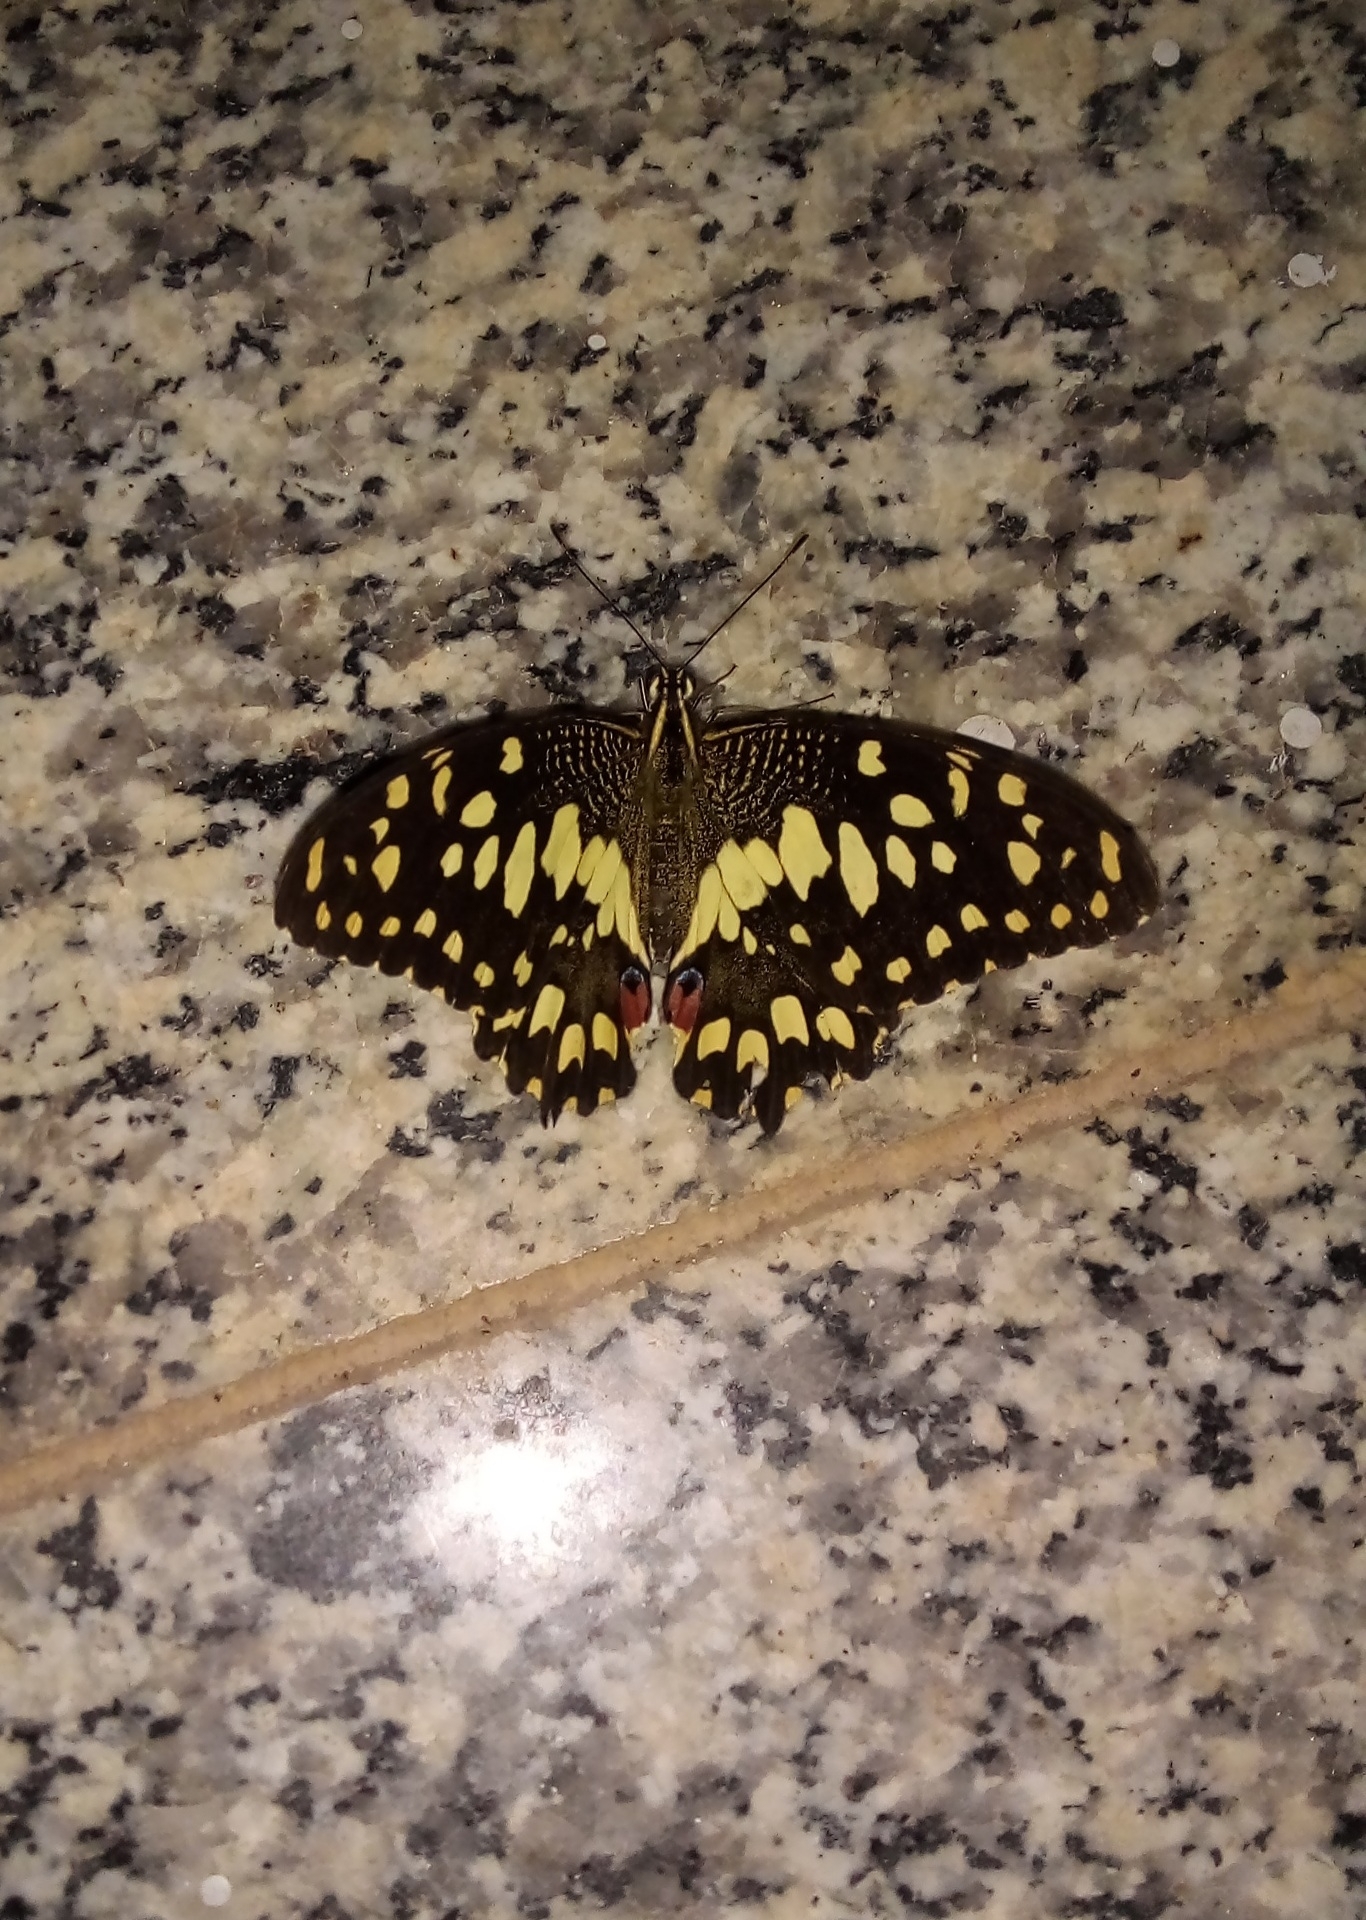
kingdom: Animalia
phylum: Arthropoda
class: Insecta
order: Lepidoptera
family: Papilionidae
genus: Papilio
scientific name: Papilio demoleus
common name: Lime butterfly
